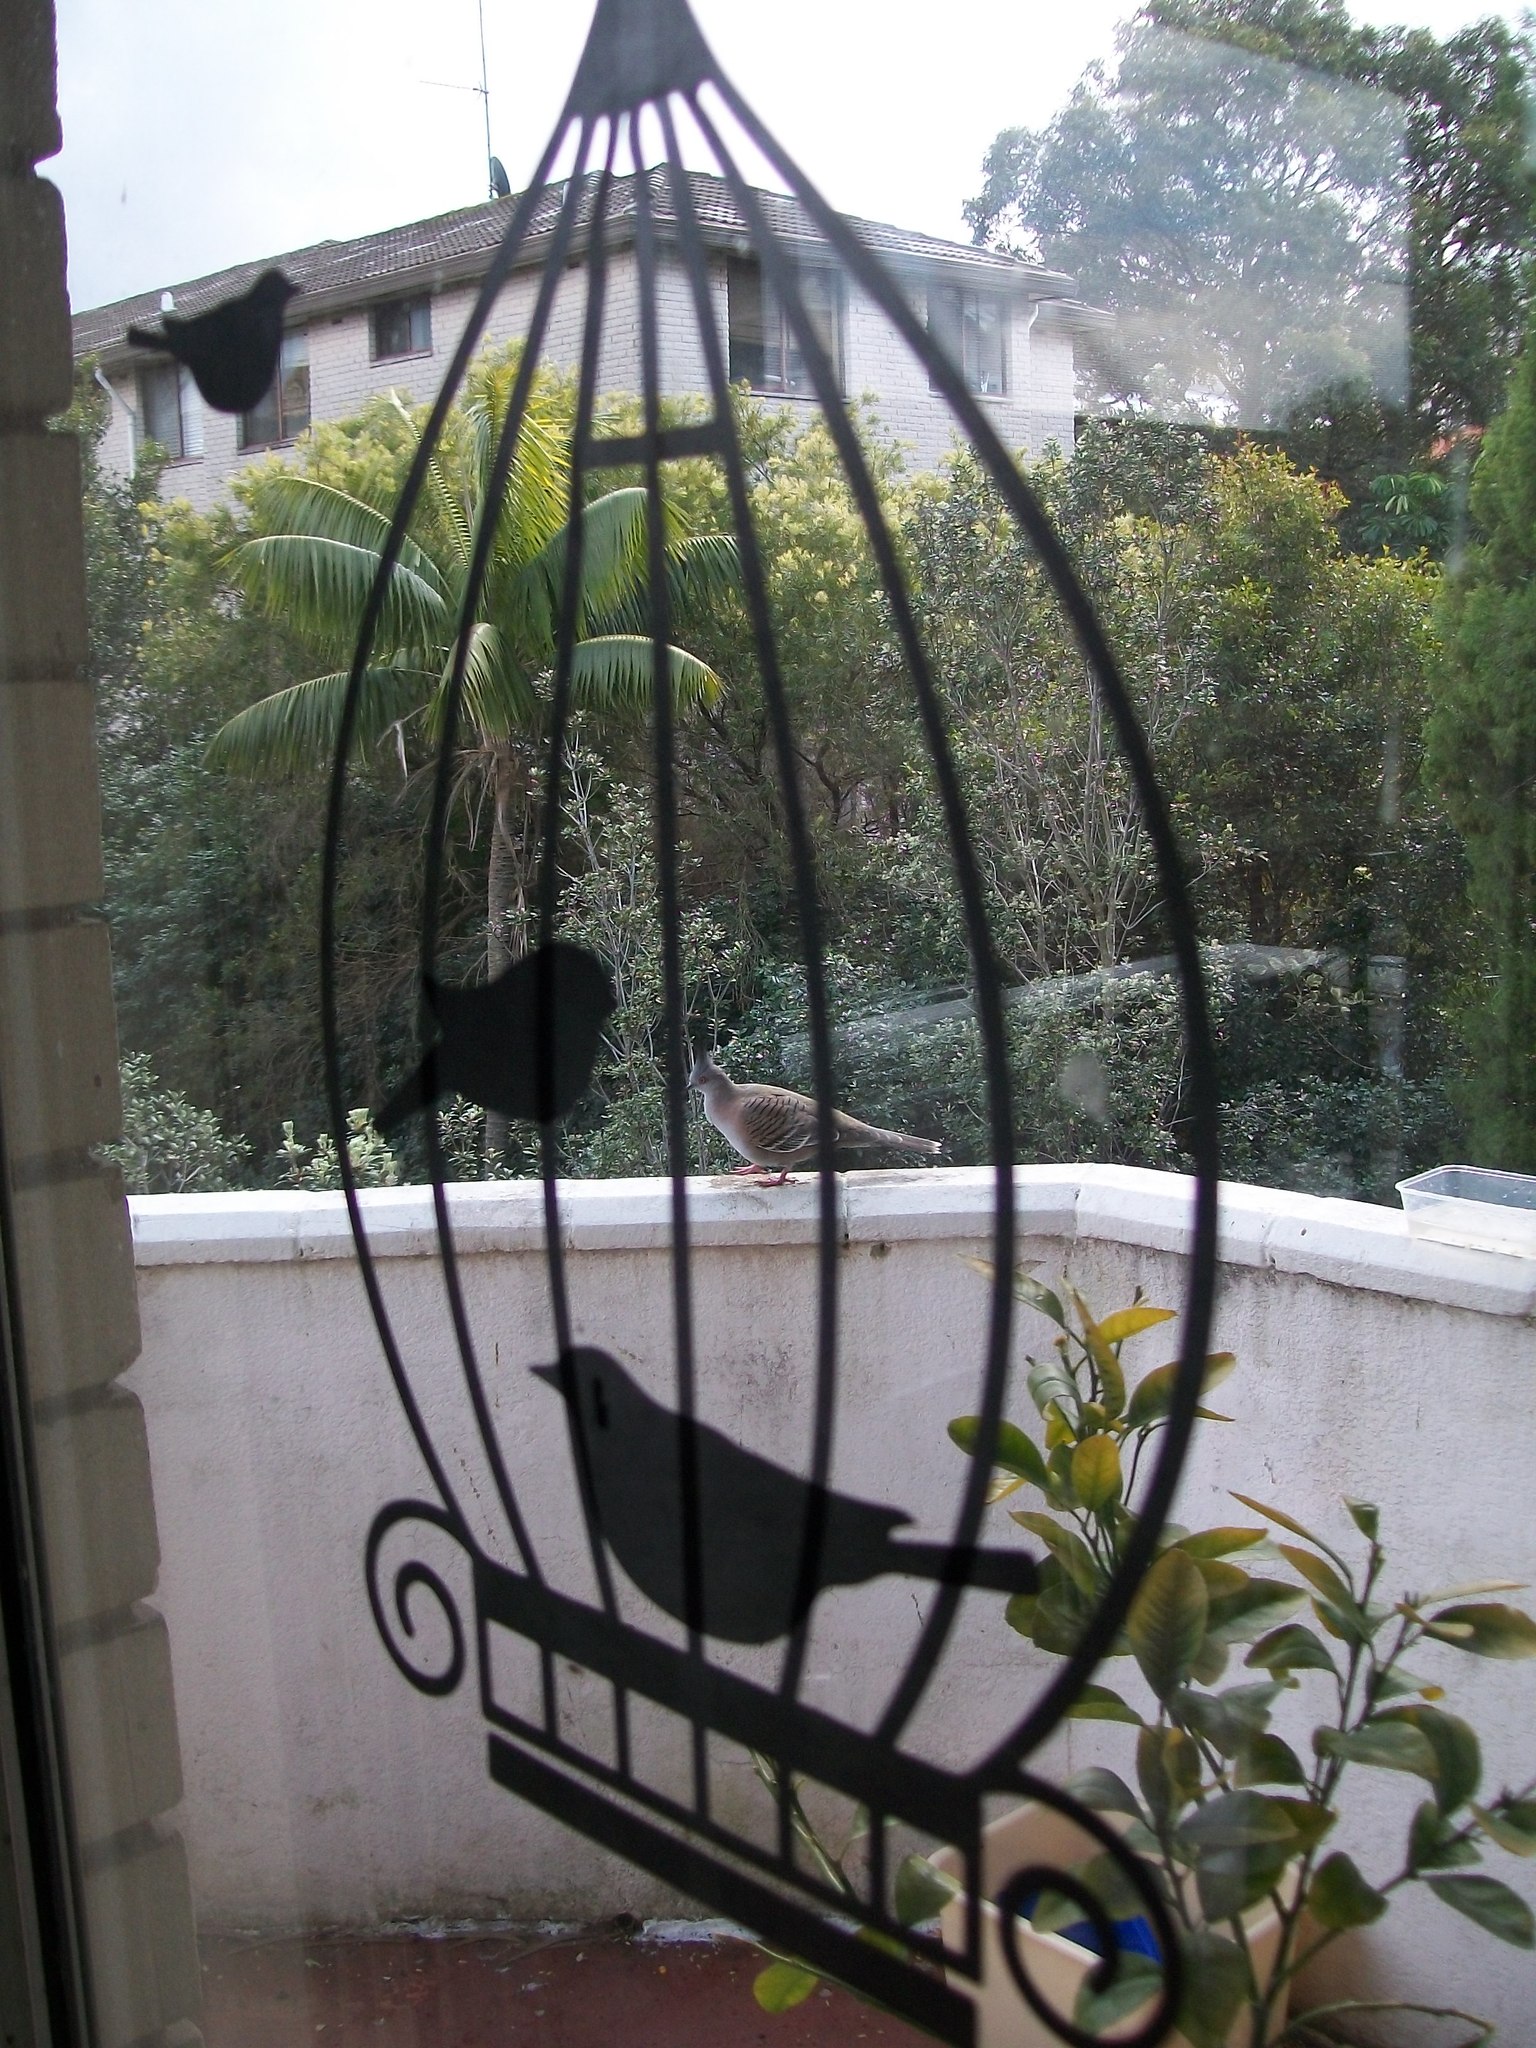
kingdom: Animalia
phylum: Chordata
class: Aves
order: Columbiformes
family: Columbidae
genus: Ocyphaps
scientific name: Ocyphaps lophotes
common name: Crested pigeon
